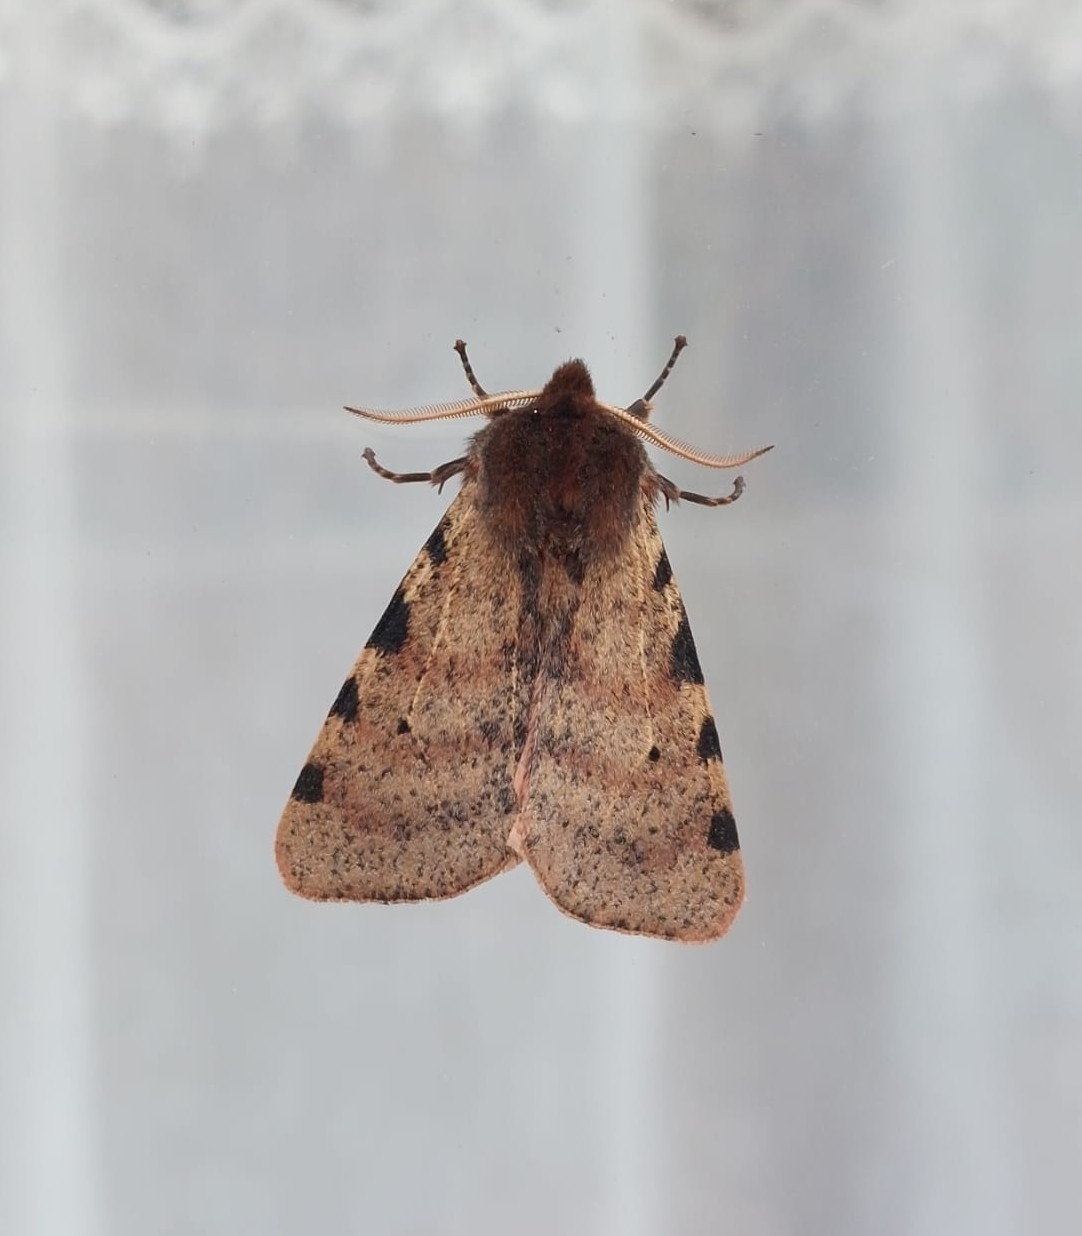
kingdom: Animalia
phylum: Arthropoda
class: Insecta
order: Lepidoptera
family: Erebidae
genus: Canararctia
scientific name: Canararctia rufescens
